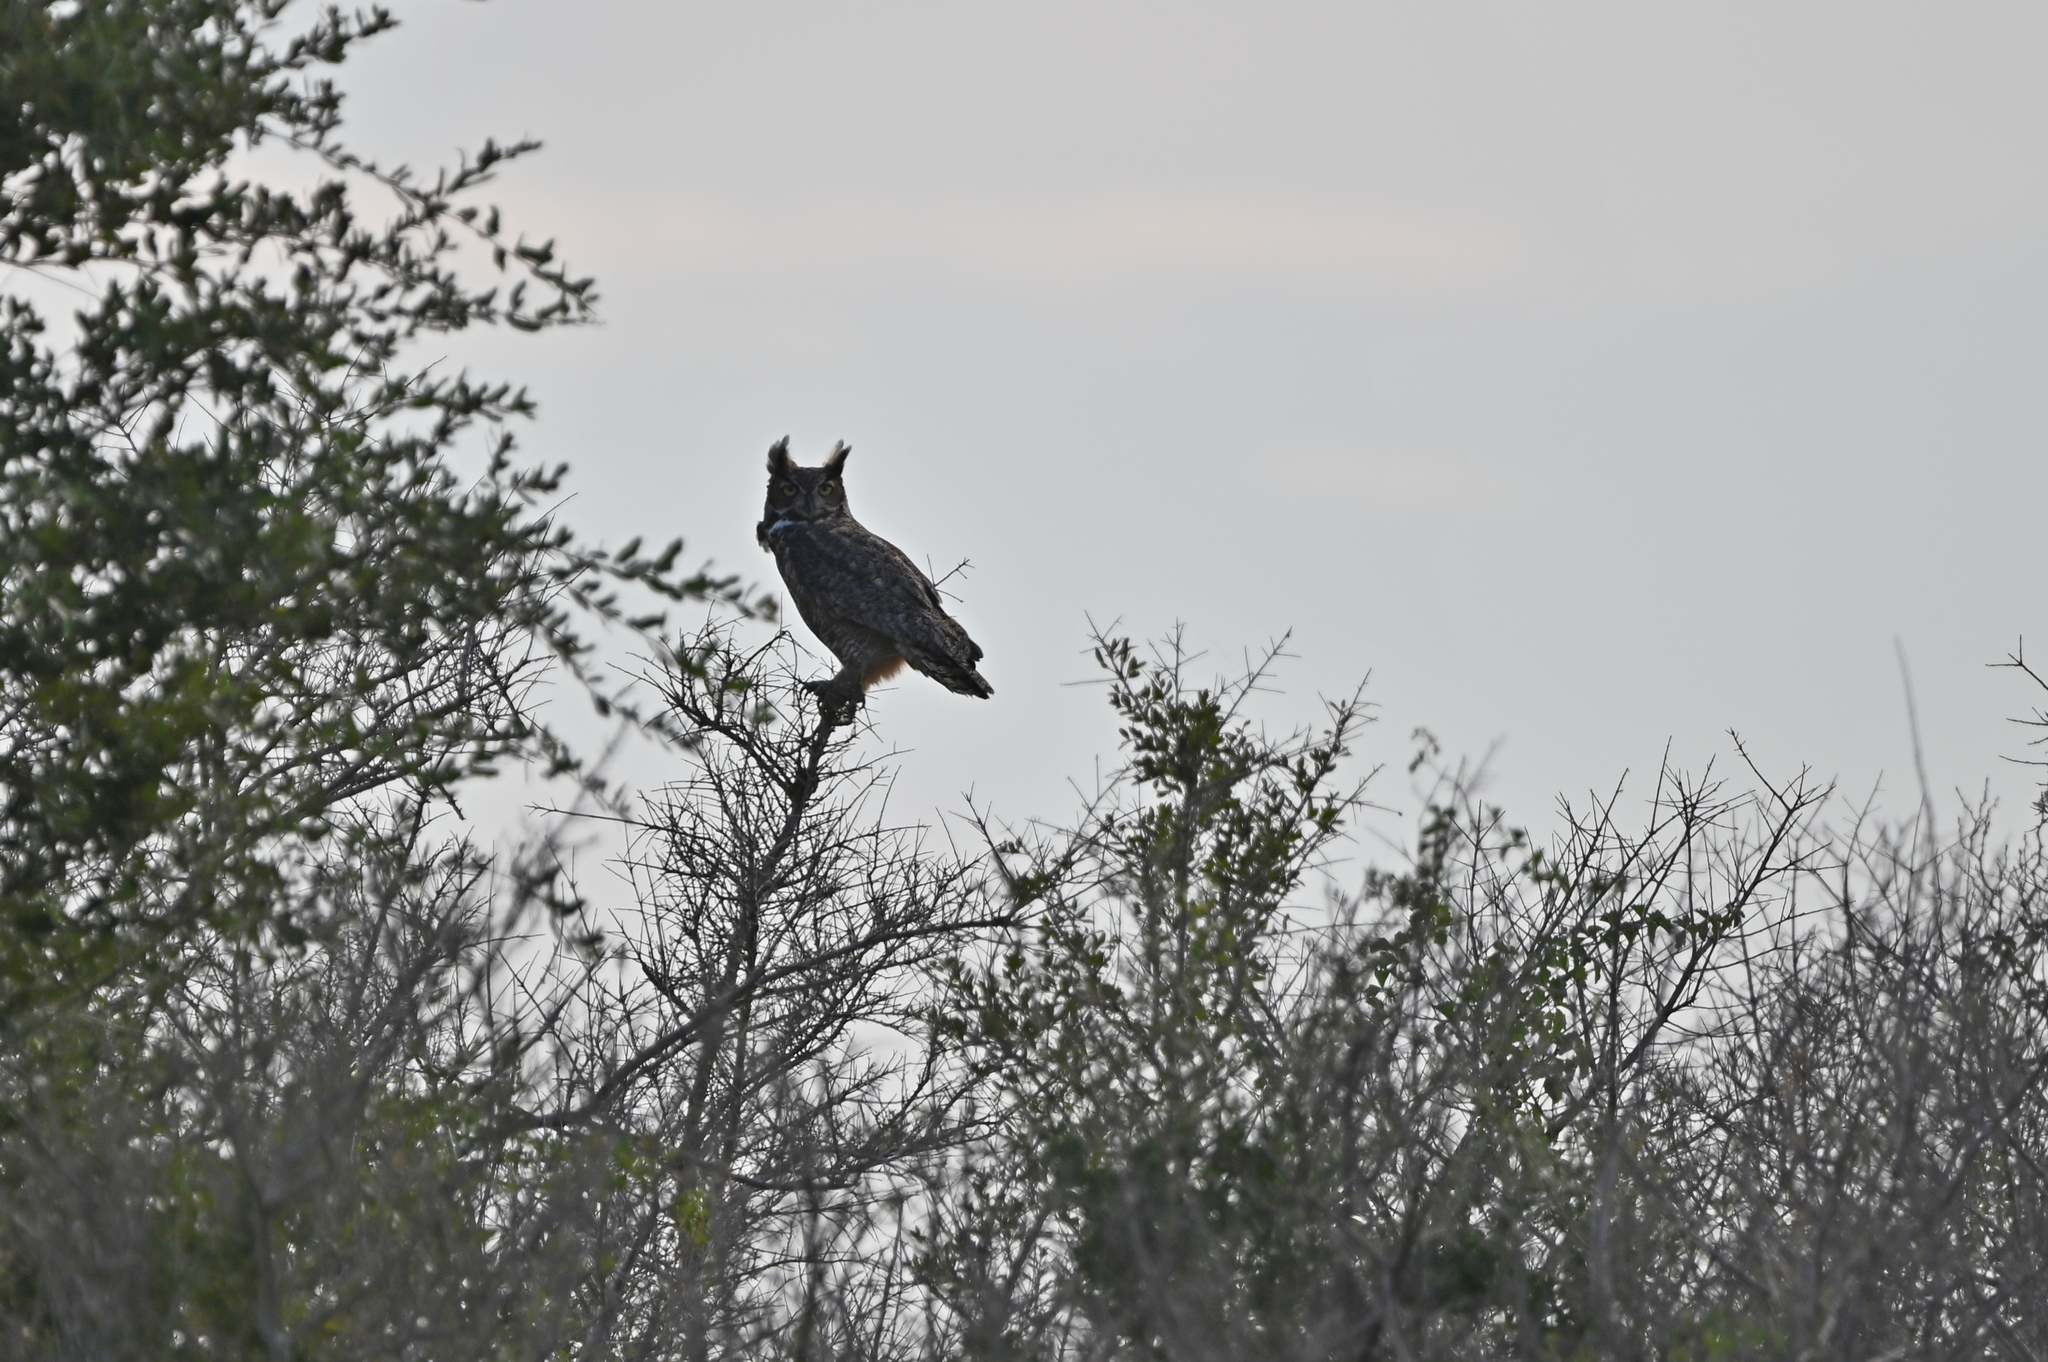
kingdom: Animalia
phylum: Chordata
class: Aves
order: Strigiformes
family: Strigidae
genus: Bubo
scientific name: Bubo virginianus
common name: Great horned owl
